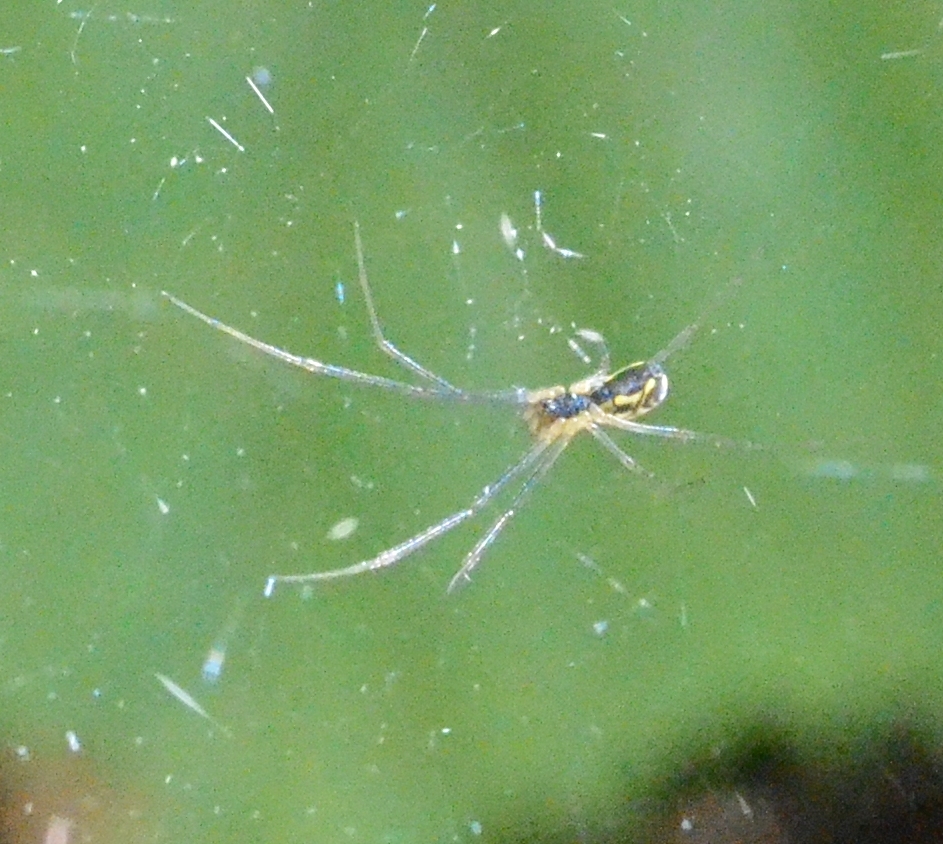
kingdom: Animalia
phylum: Arthropoda
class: Arachnida
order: Araneae
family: Linyphiidae
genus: Neriene
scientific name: Neriene radiata
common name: Filmy dome spider
